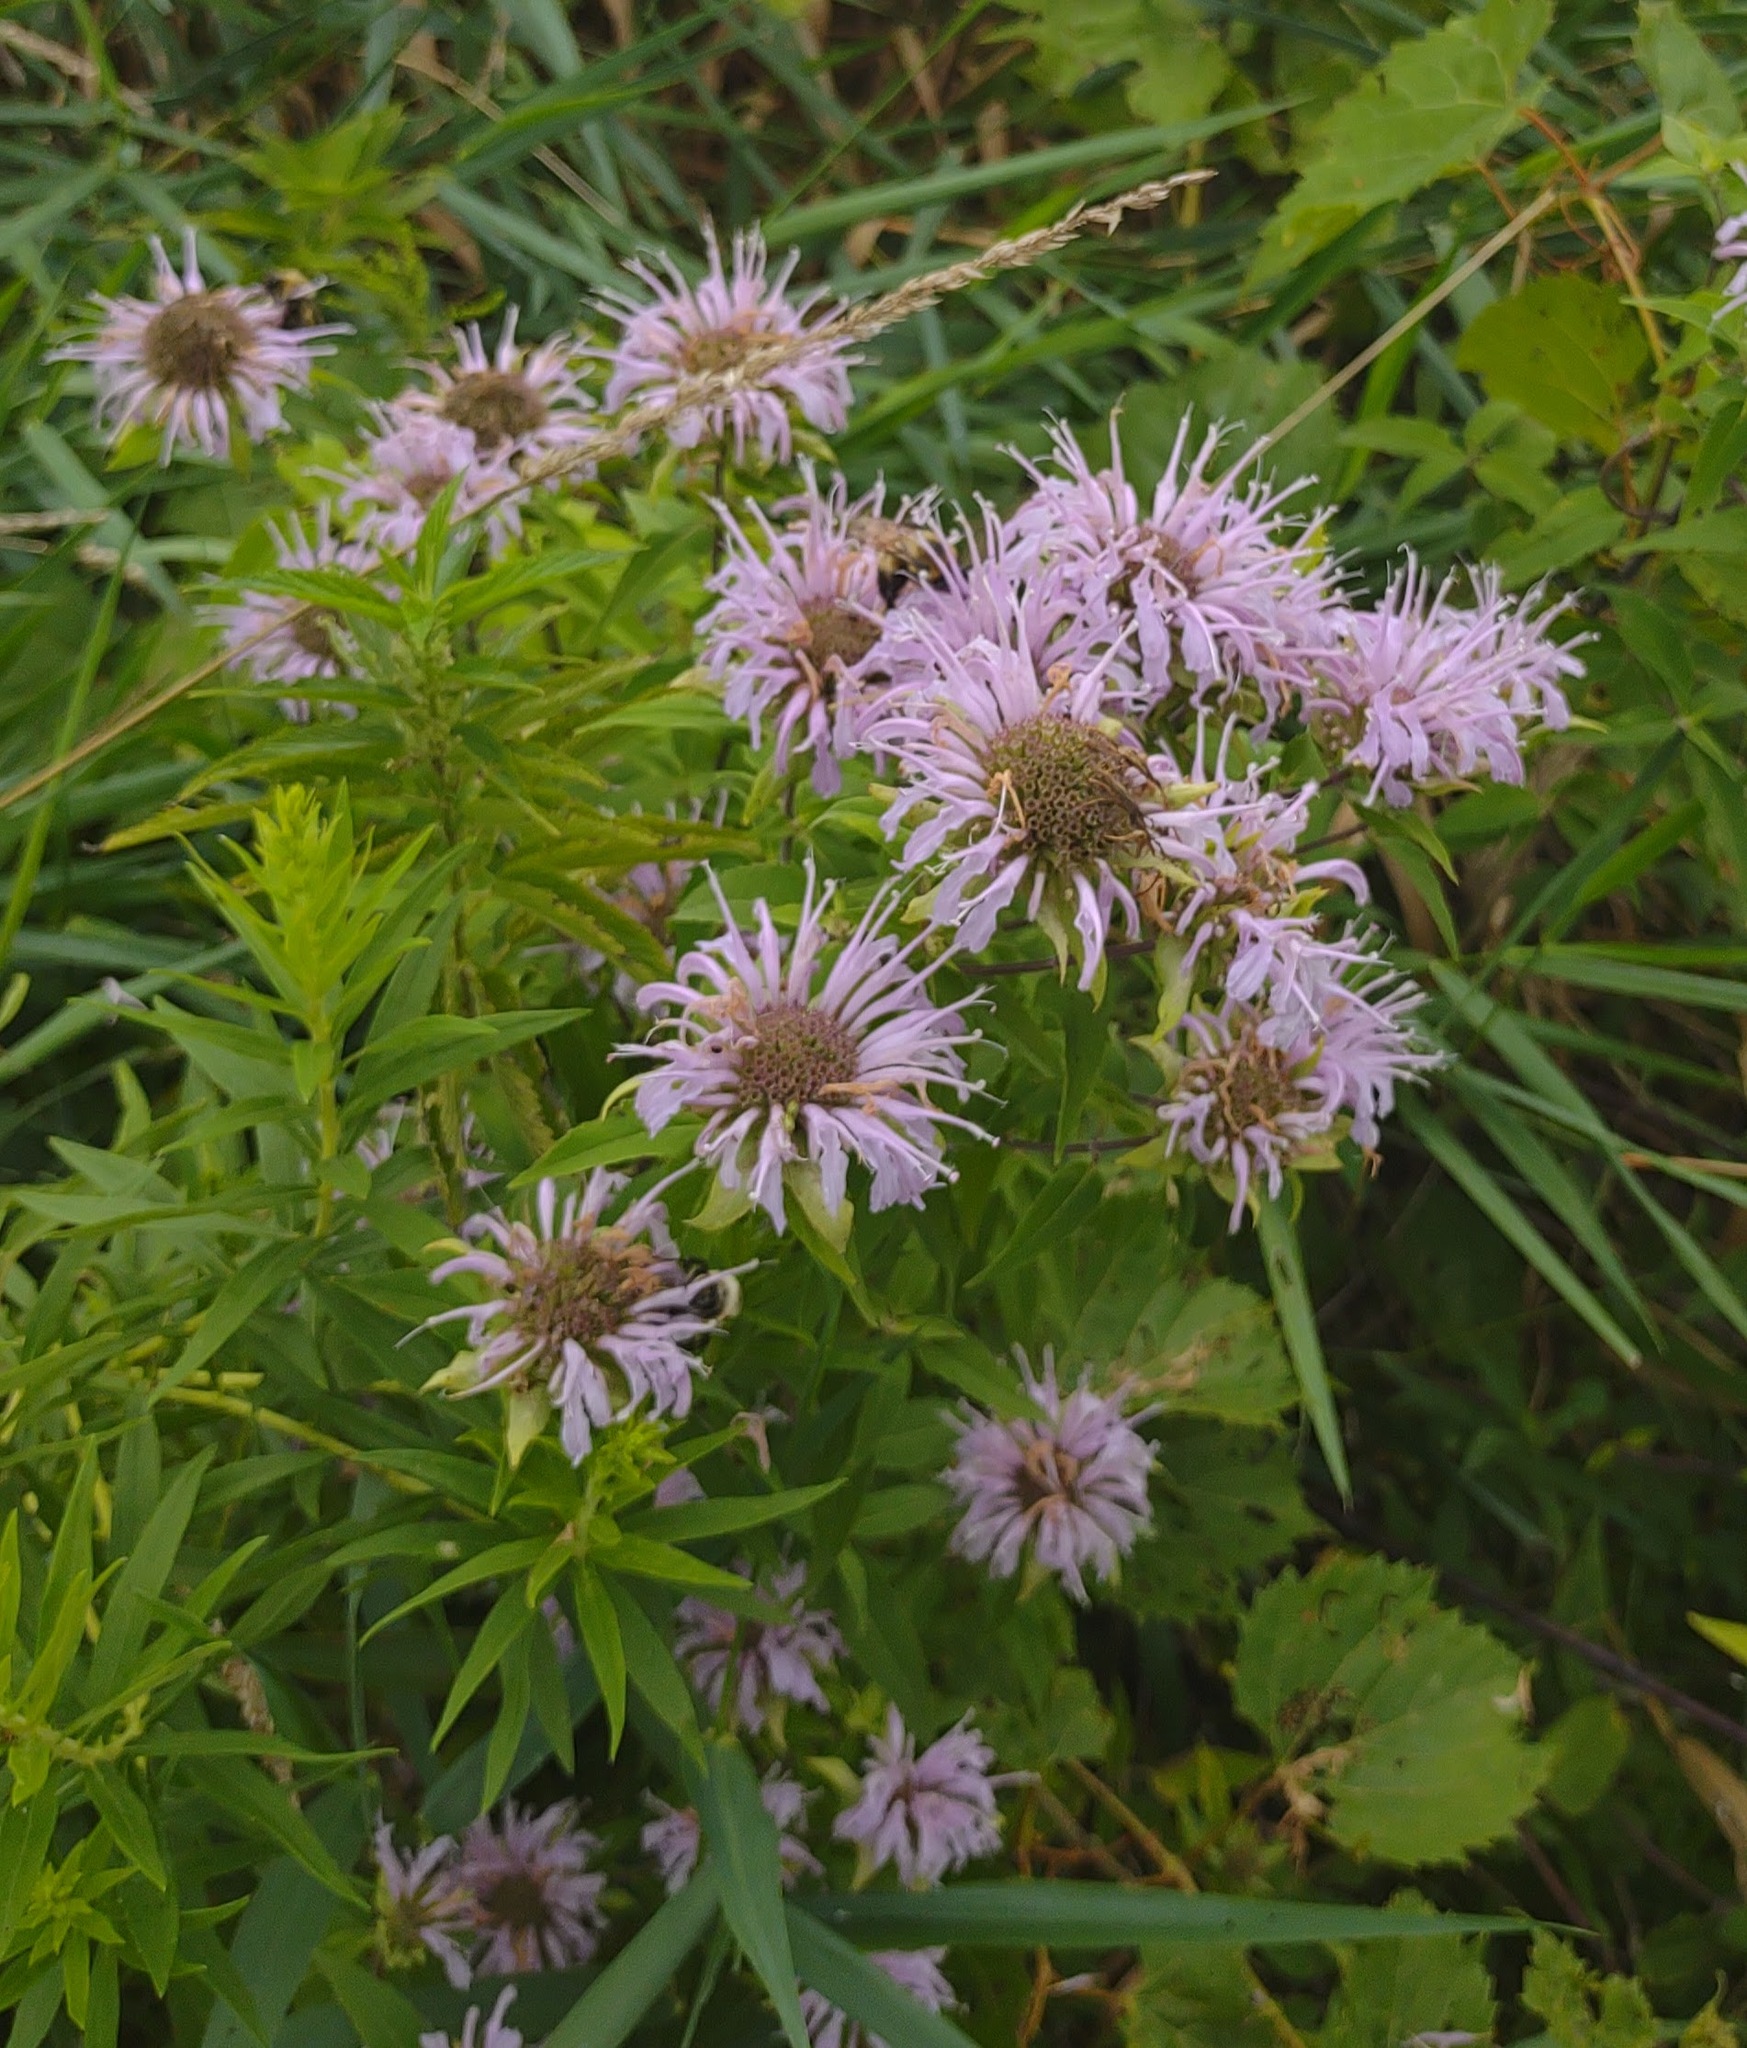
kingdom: Plantae
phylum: Tracheophyta
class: Magnoliopsida
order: Lamiales
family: Lamiaceae
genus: Monarda
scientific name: Monarda fistulosa
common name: Purple beebalm
